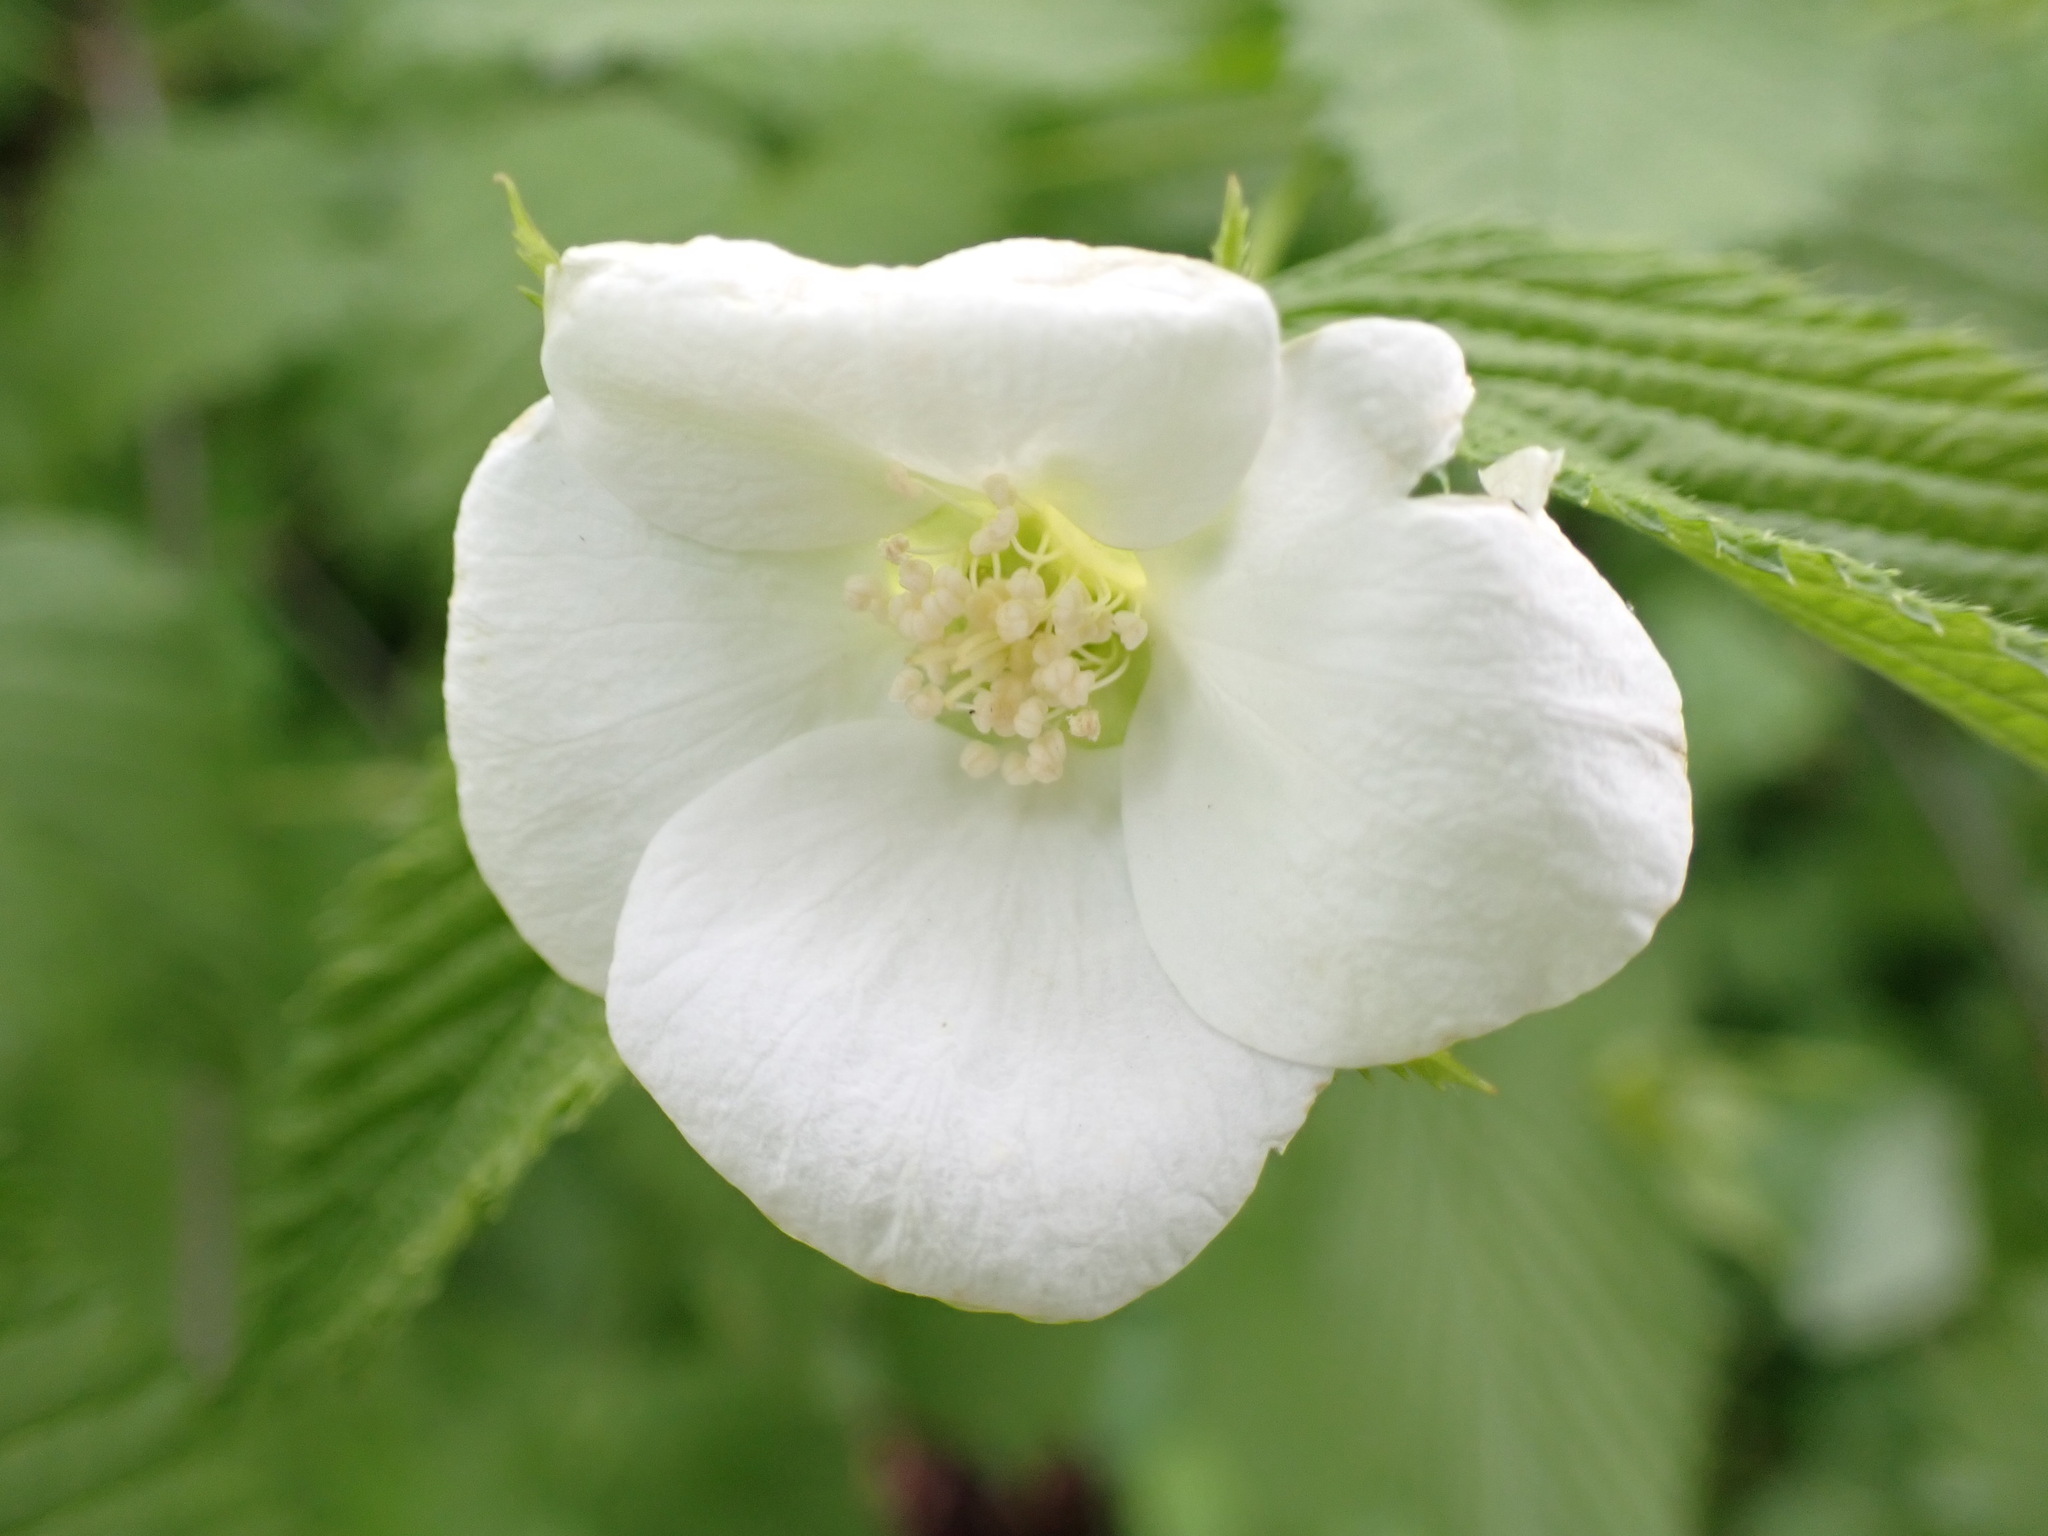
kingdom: Plantae
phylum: Tracheophyta
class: Magnoliopsida
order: Rosales
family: Rosaceae
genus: Rhodotypos
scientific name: Rhodotypos scandens
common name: Jetbead
